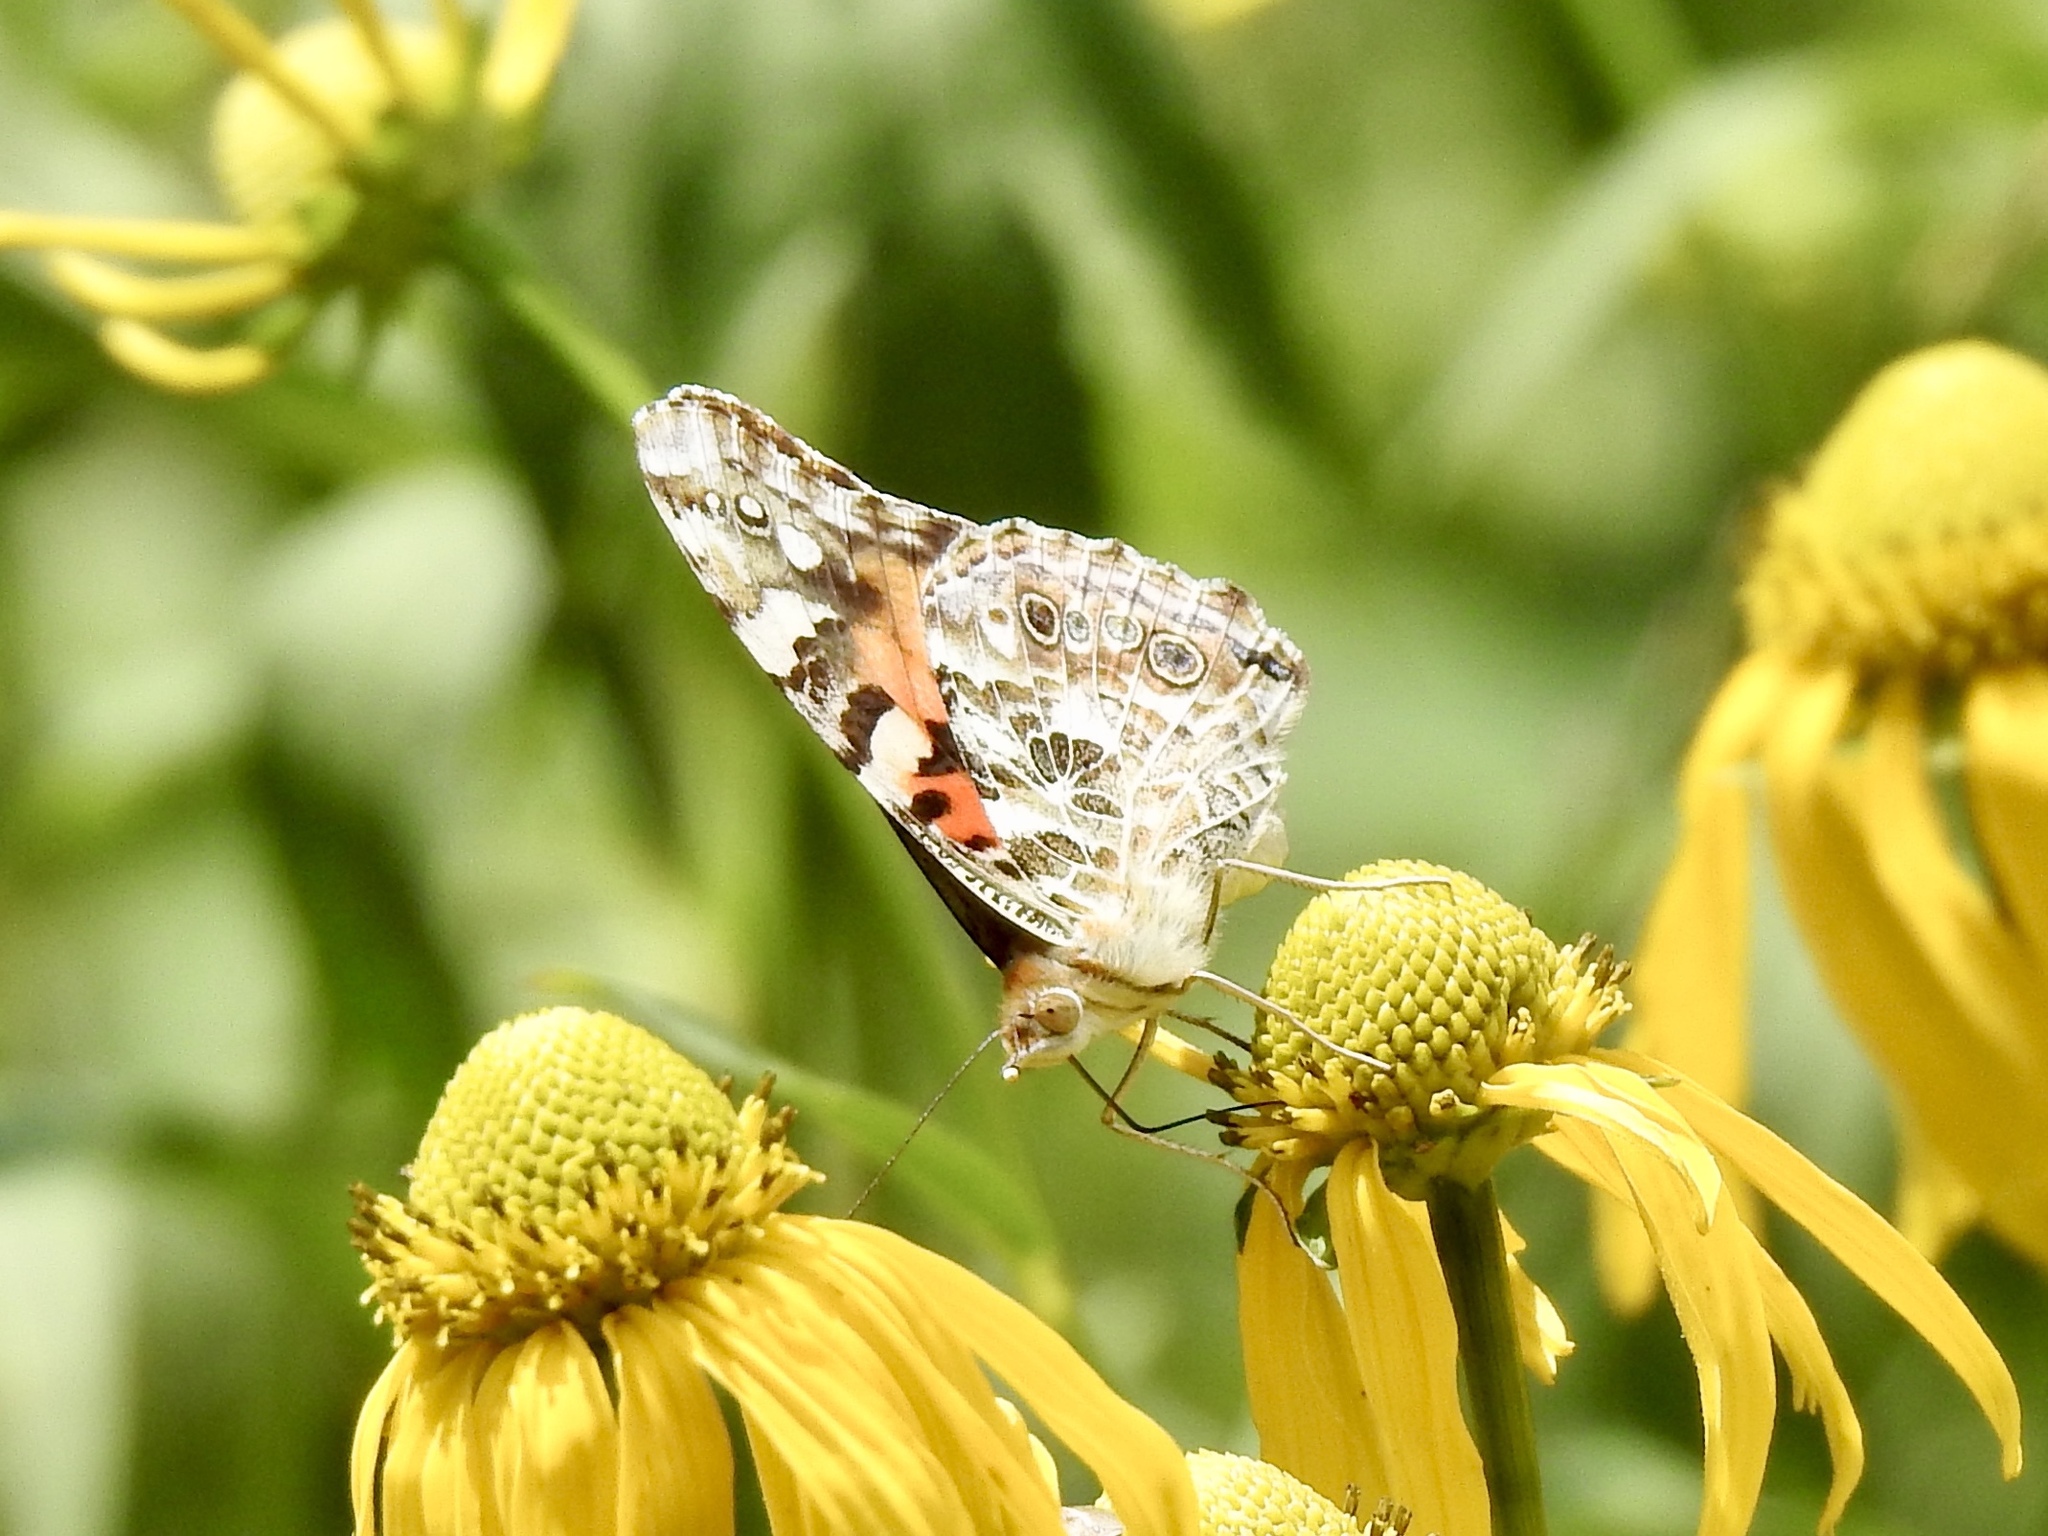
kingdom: Animalia
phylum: Arthropoda
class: Insecta
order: Lepidoptera
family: Nymphalidae
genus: Vanessa
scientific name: Vanessa cardui
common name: Painted lady
